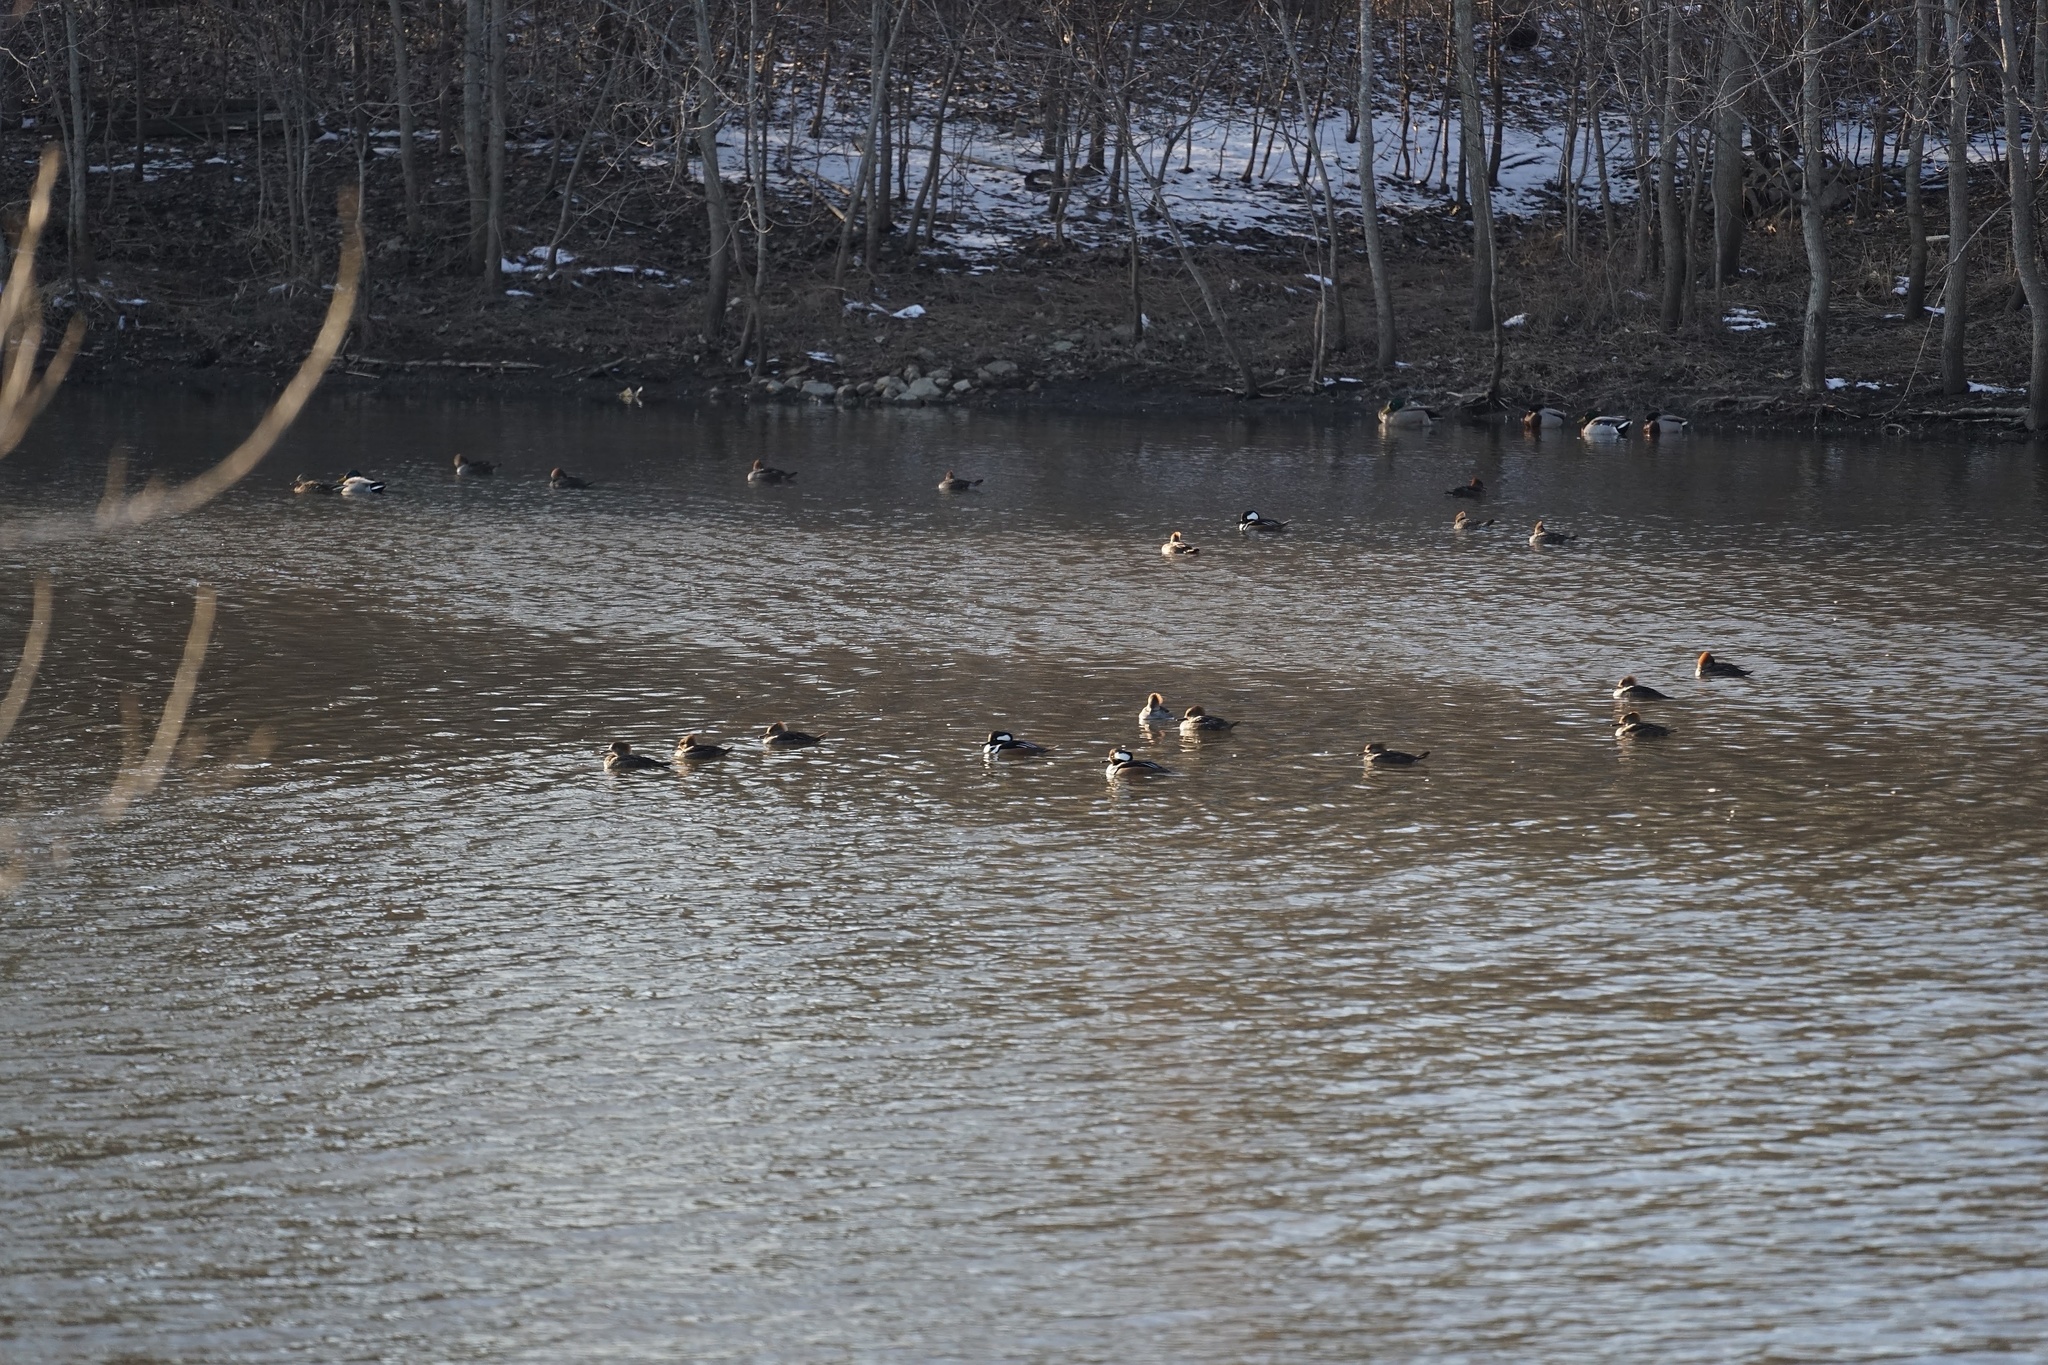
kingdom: Animalia
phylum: Chordata
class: Aves
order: Anseriformes
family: Anatidae
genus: Lophodytes
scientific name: Lophodytes cucullatus
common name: Hooded merganser
